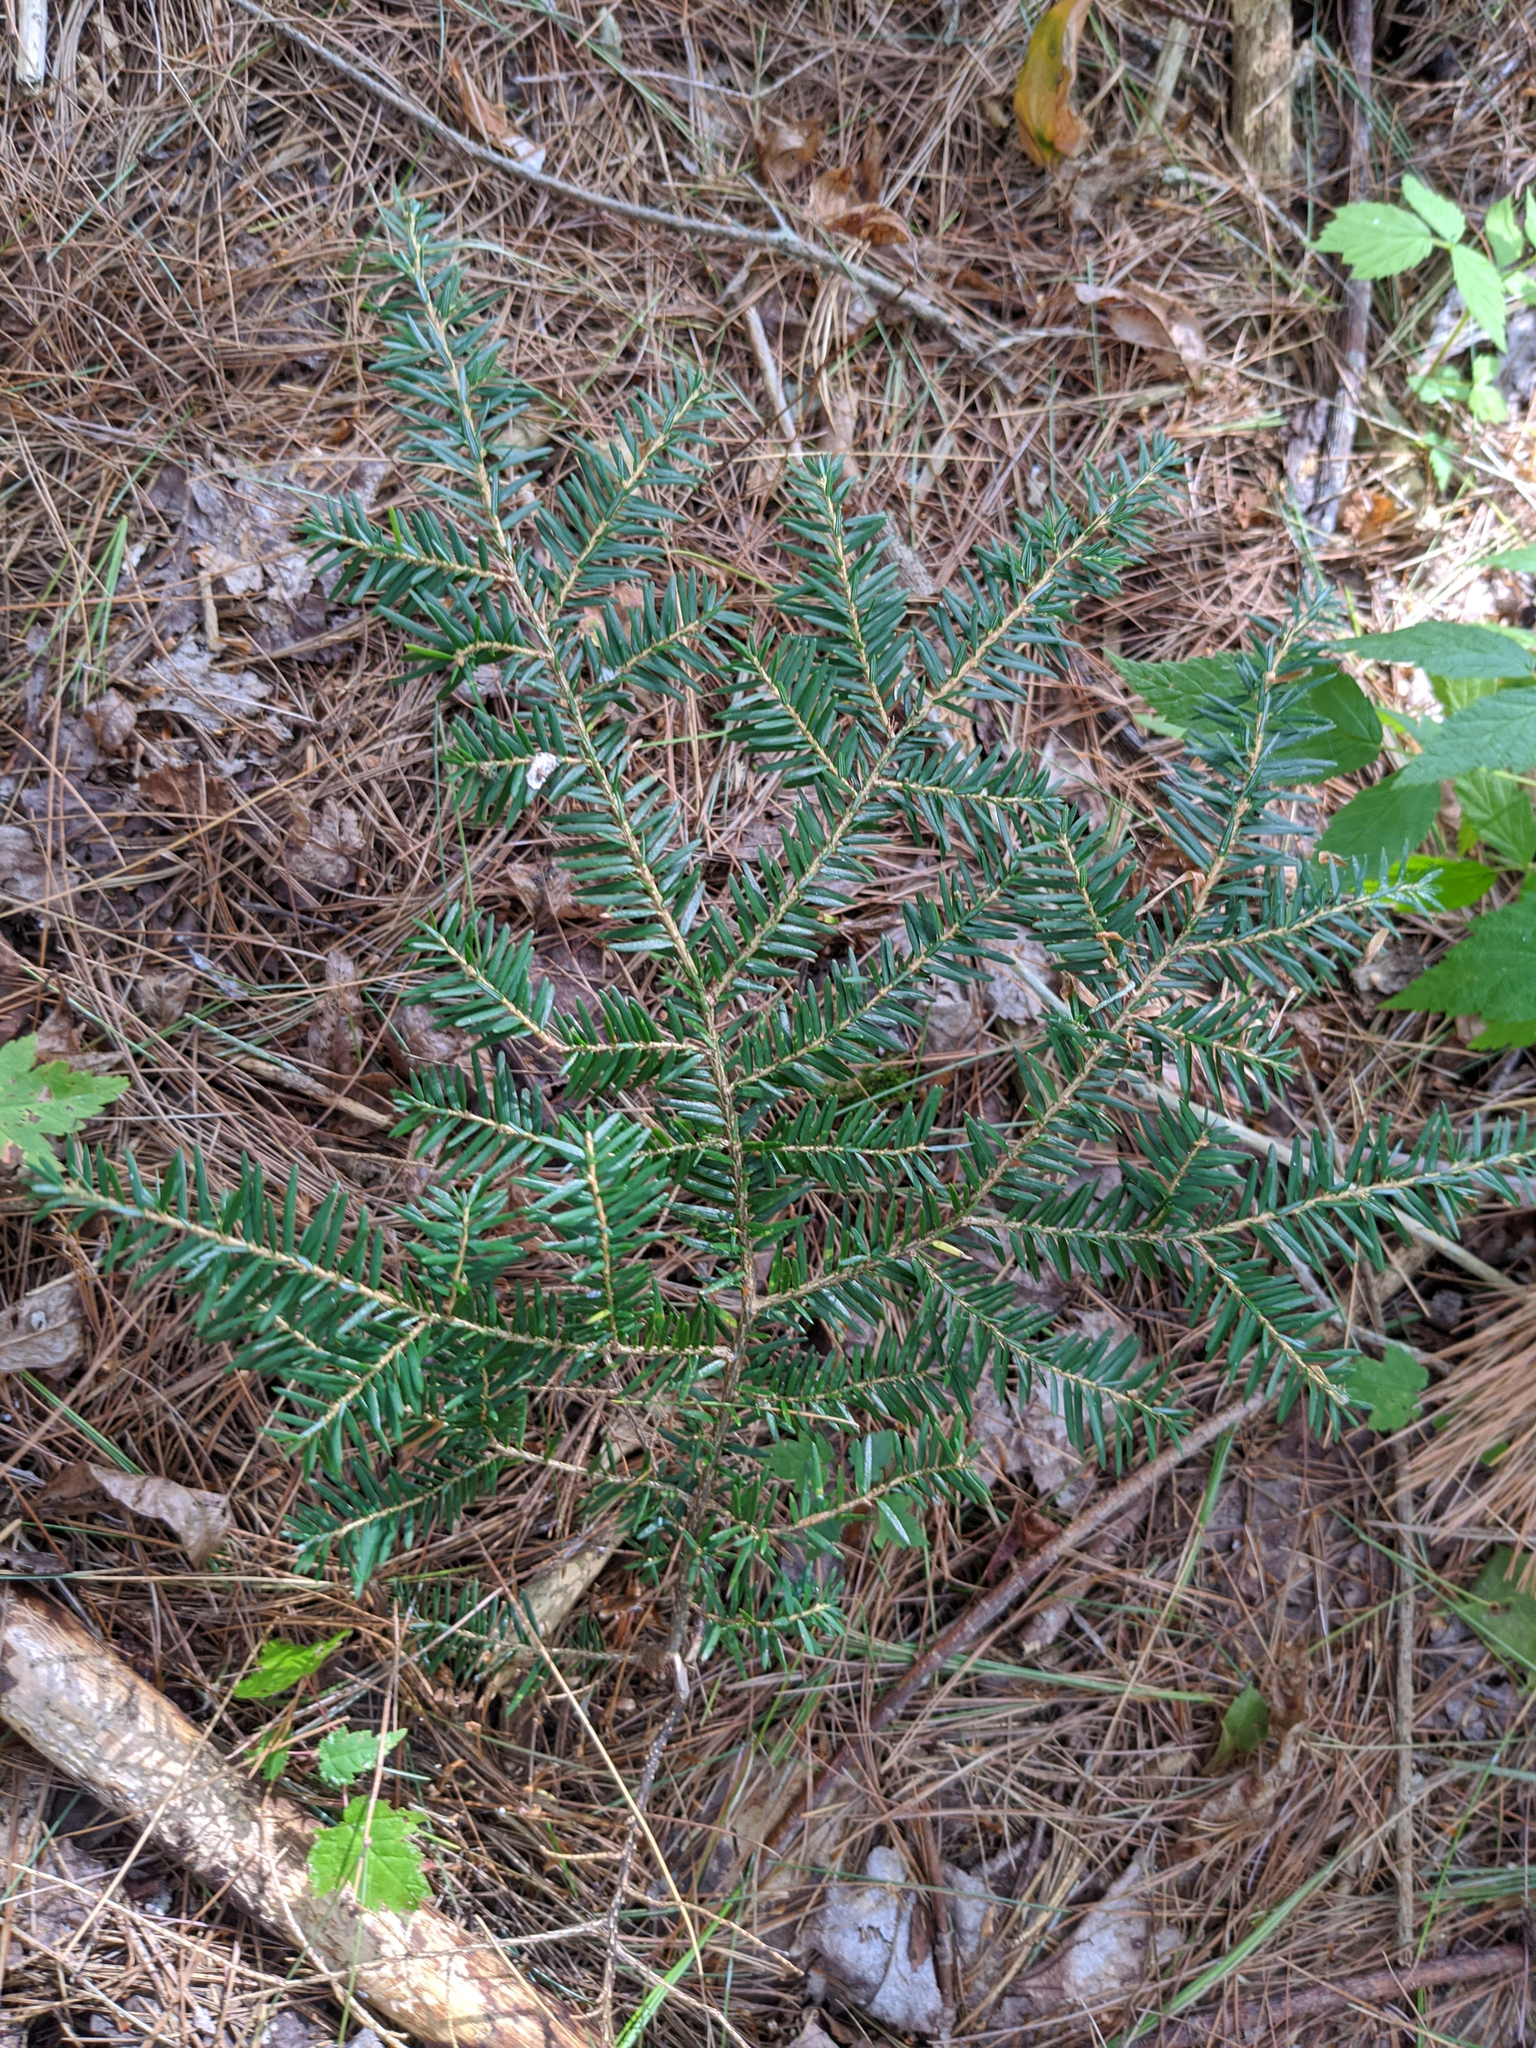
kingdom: Plantae
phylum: Tracheophyta
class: Pinopsida
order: Pinales
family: Pinaceae
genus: Tsuga
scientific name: Tsuga canadensis
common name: Eastern hemlock
